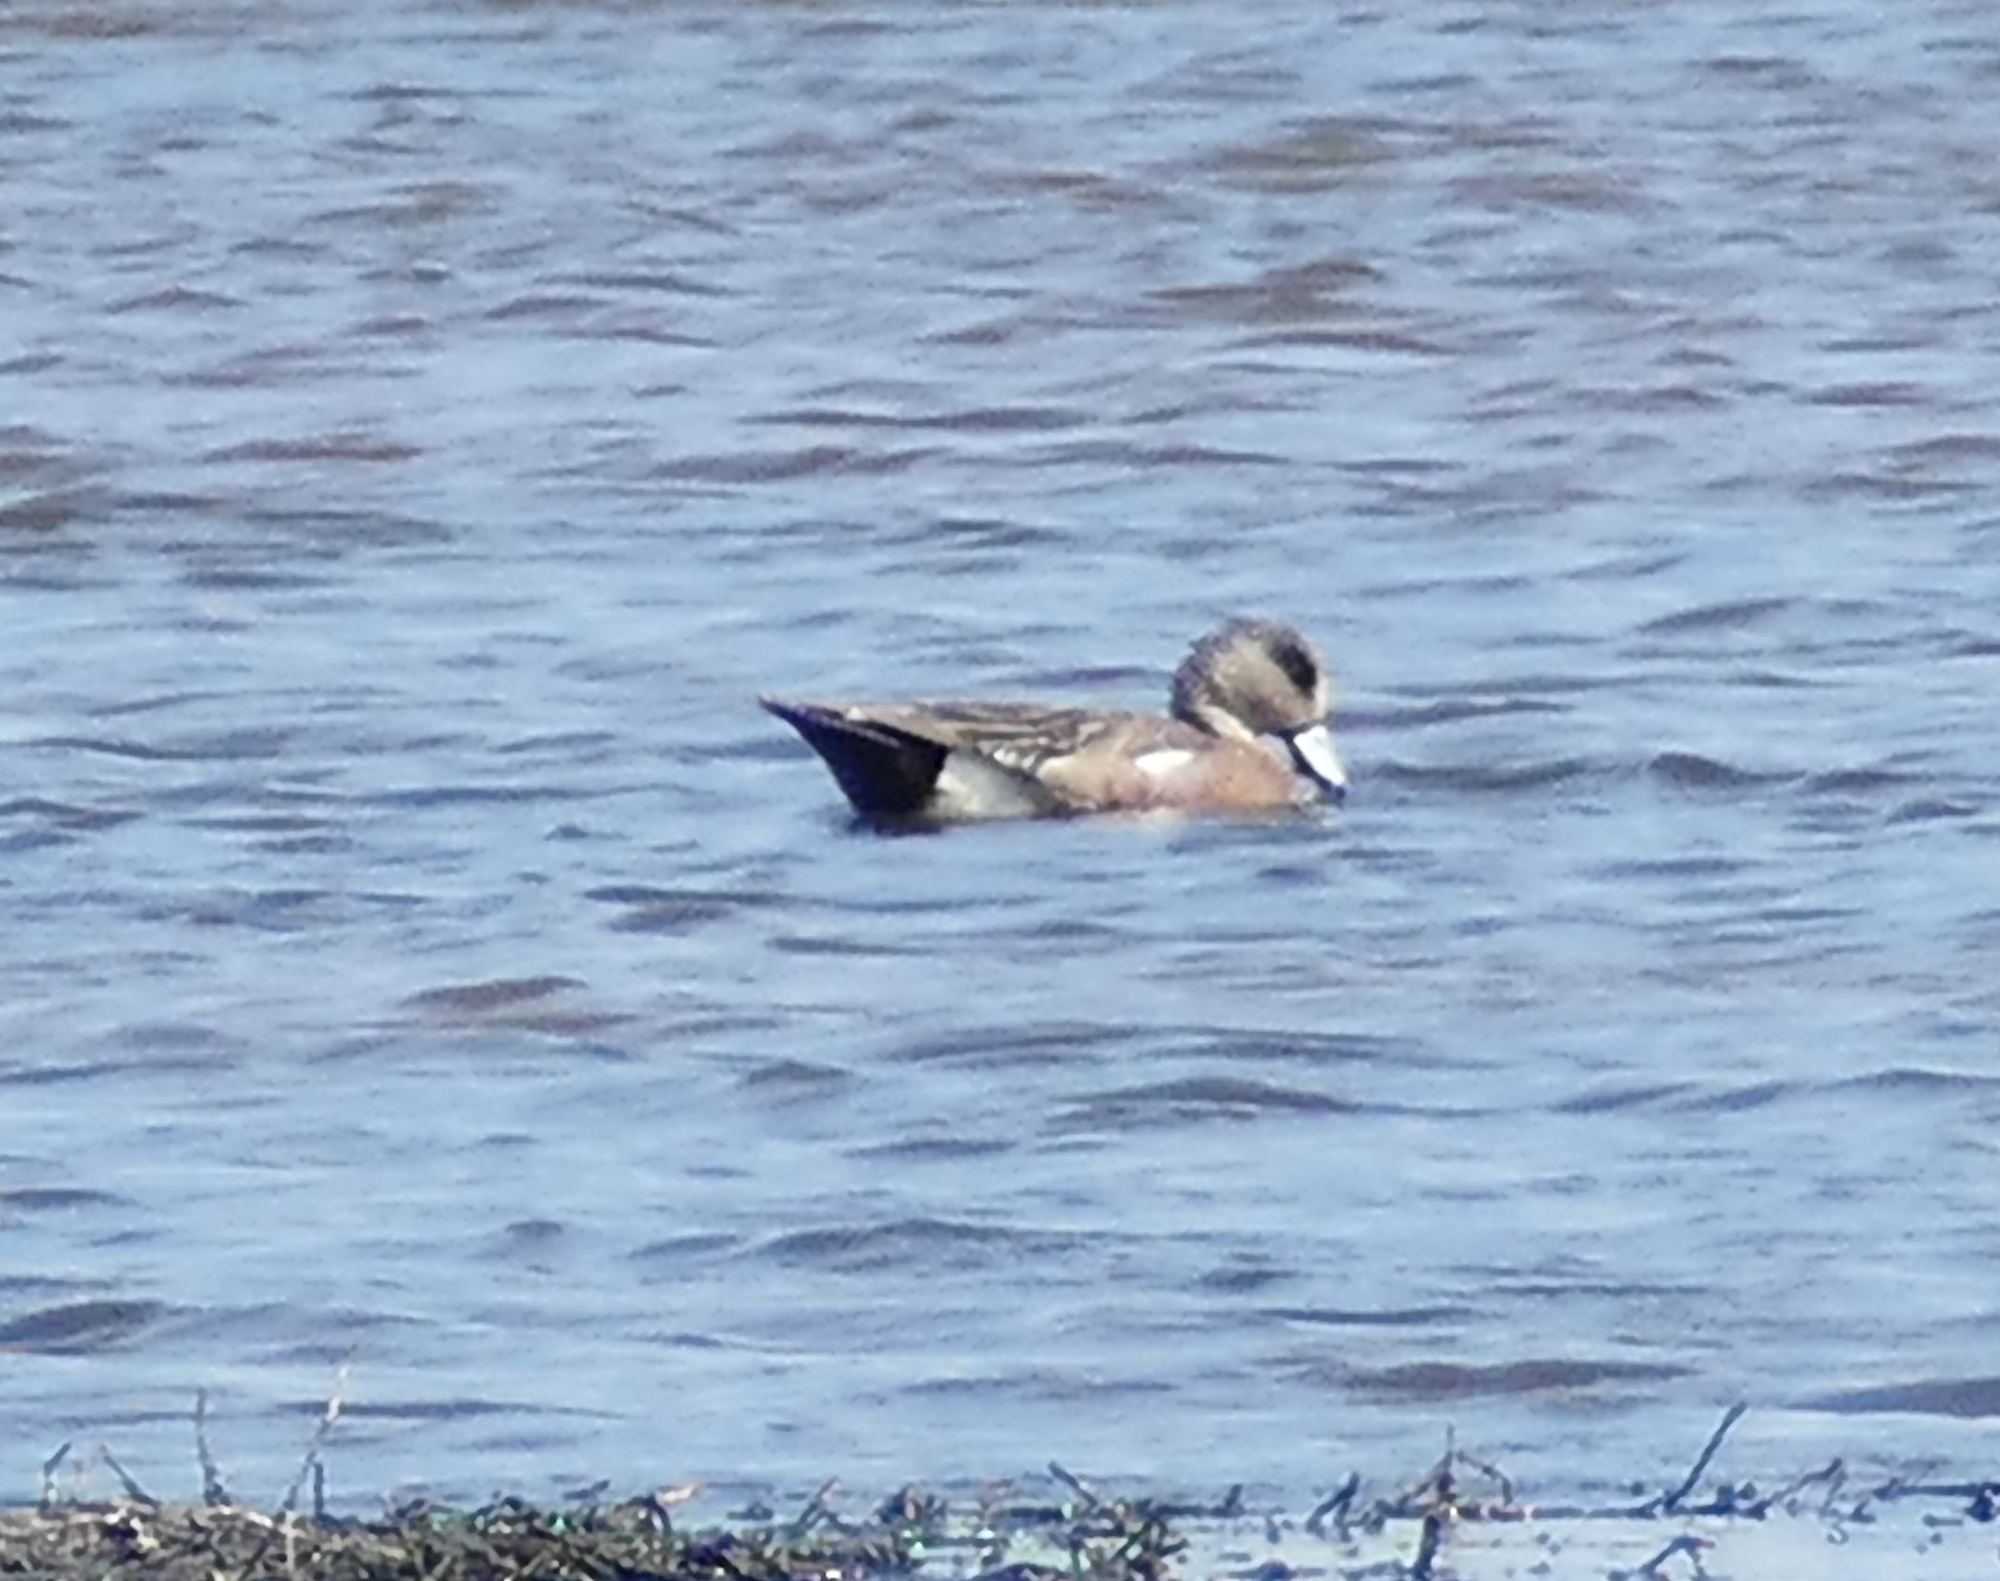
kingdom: Animalia
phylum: Chordata
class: Aves
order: Anseriformes
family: Anatidae
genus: Mareca
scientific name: Mareca americana
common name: American wigeon
